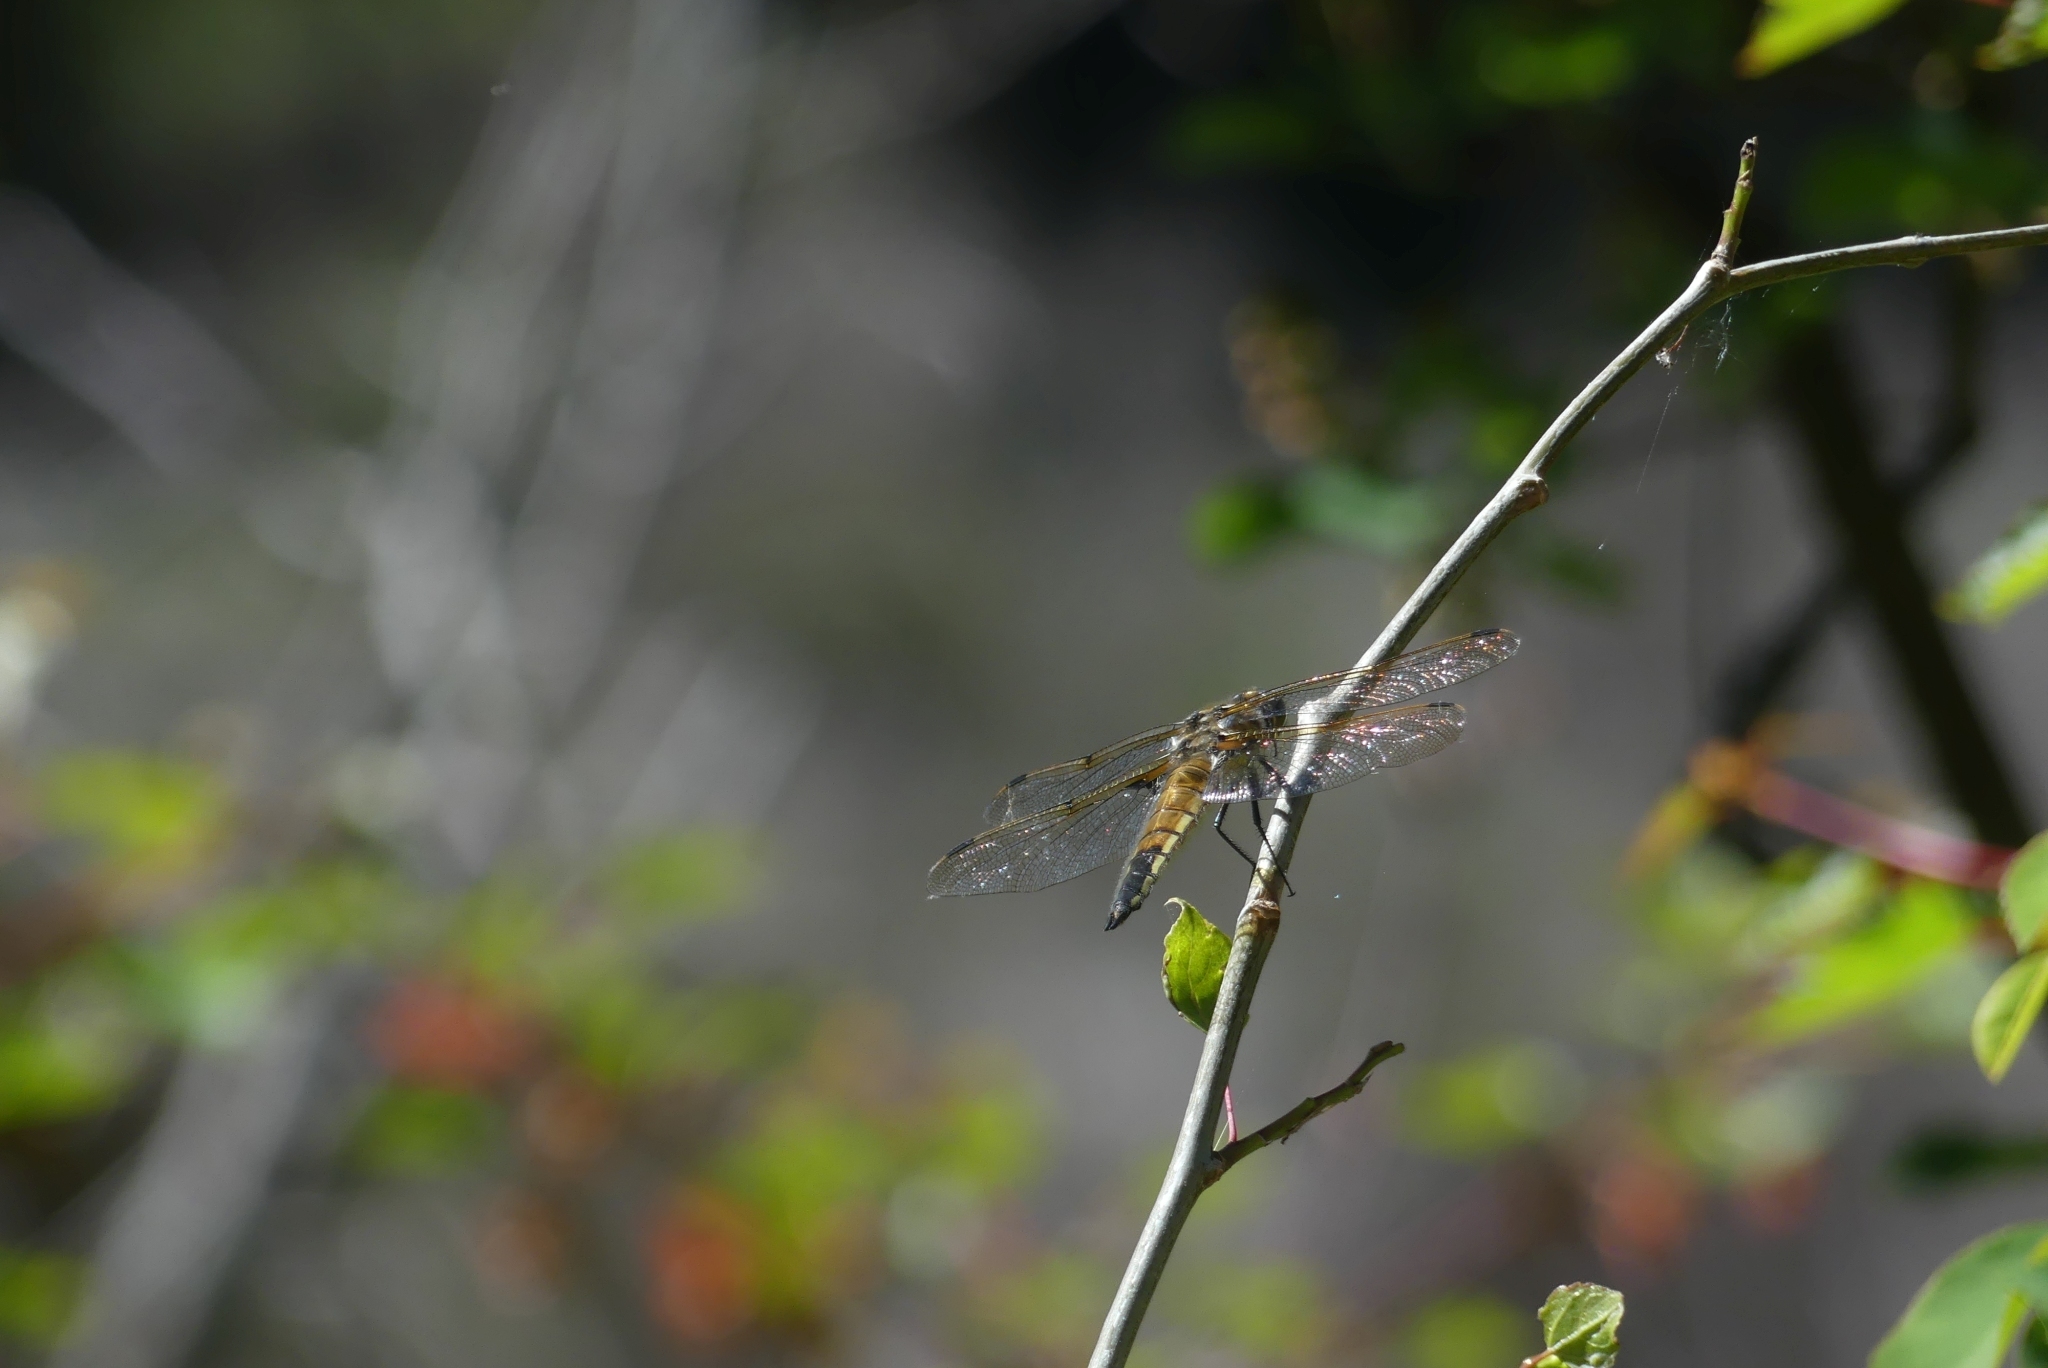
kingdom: Animalia
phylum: Arthropoda
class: Insecta
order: Odonata
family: Libellulidae
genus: Libellula
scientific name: Libellula quadrimaculata
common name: Four-spotted chaser
